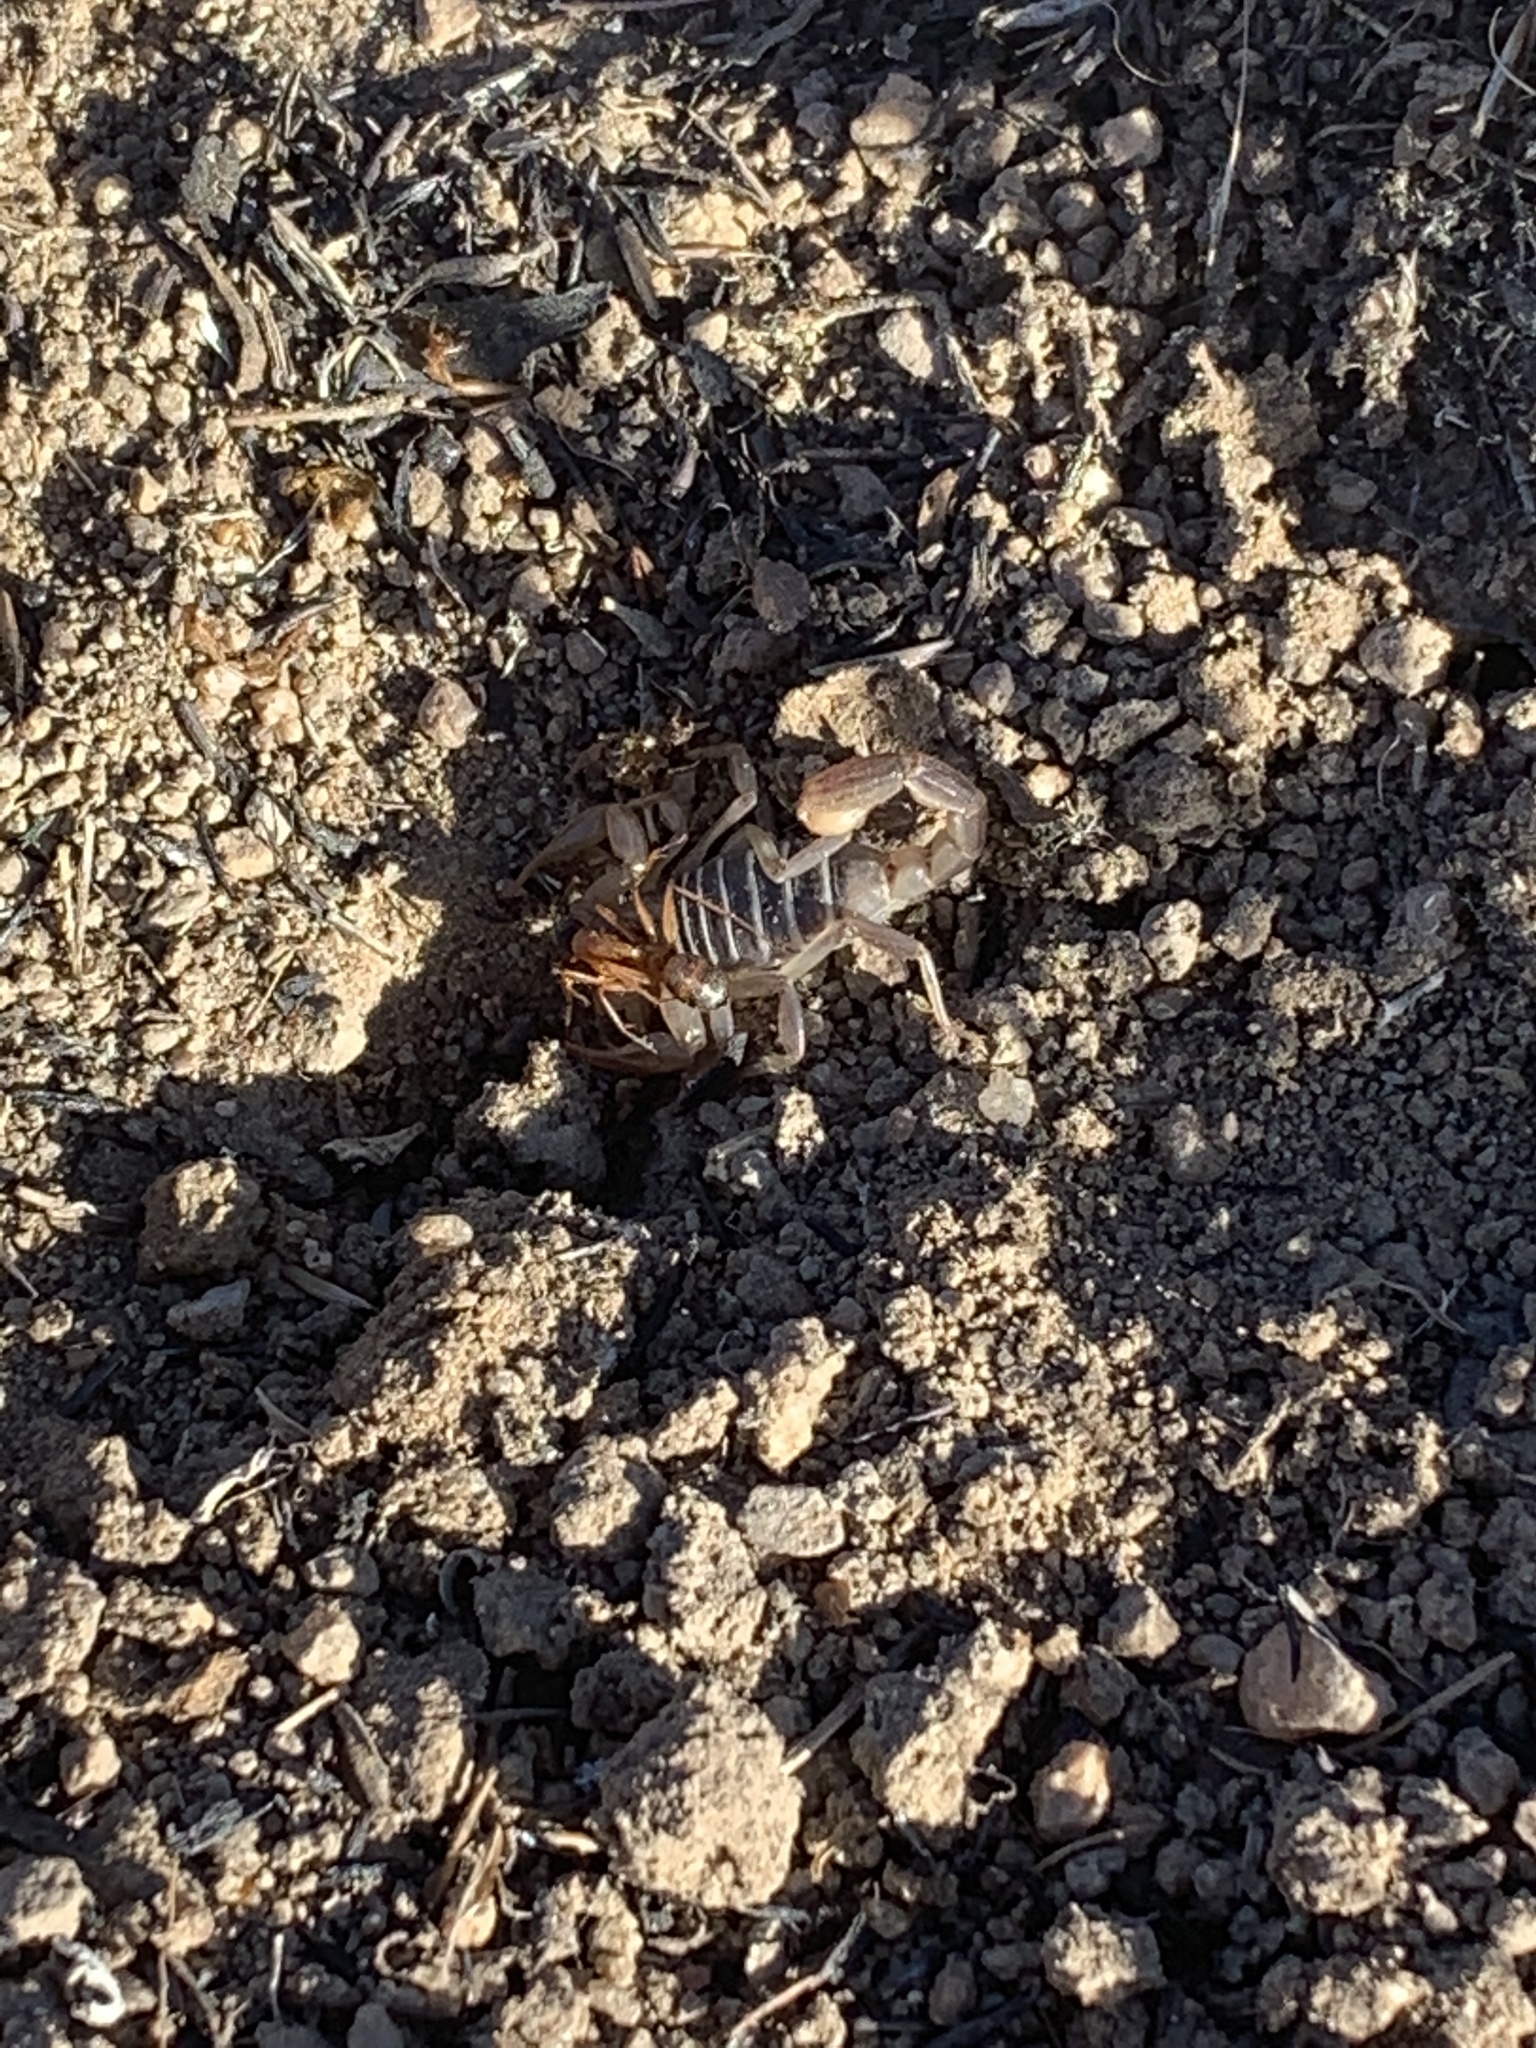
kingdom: Animalia
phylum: Arthropoda
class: Arachnida
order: Scorpiones
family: Vaejovidae
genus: Paruroctonus
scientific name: Paruroctonus boreus
